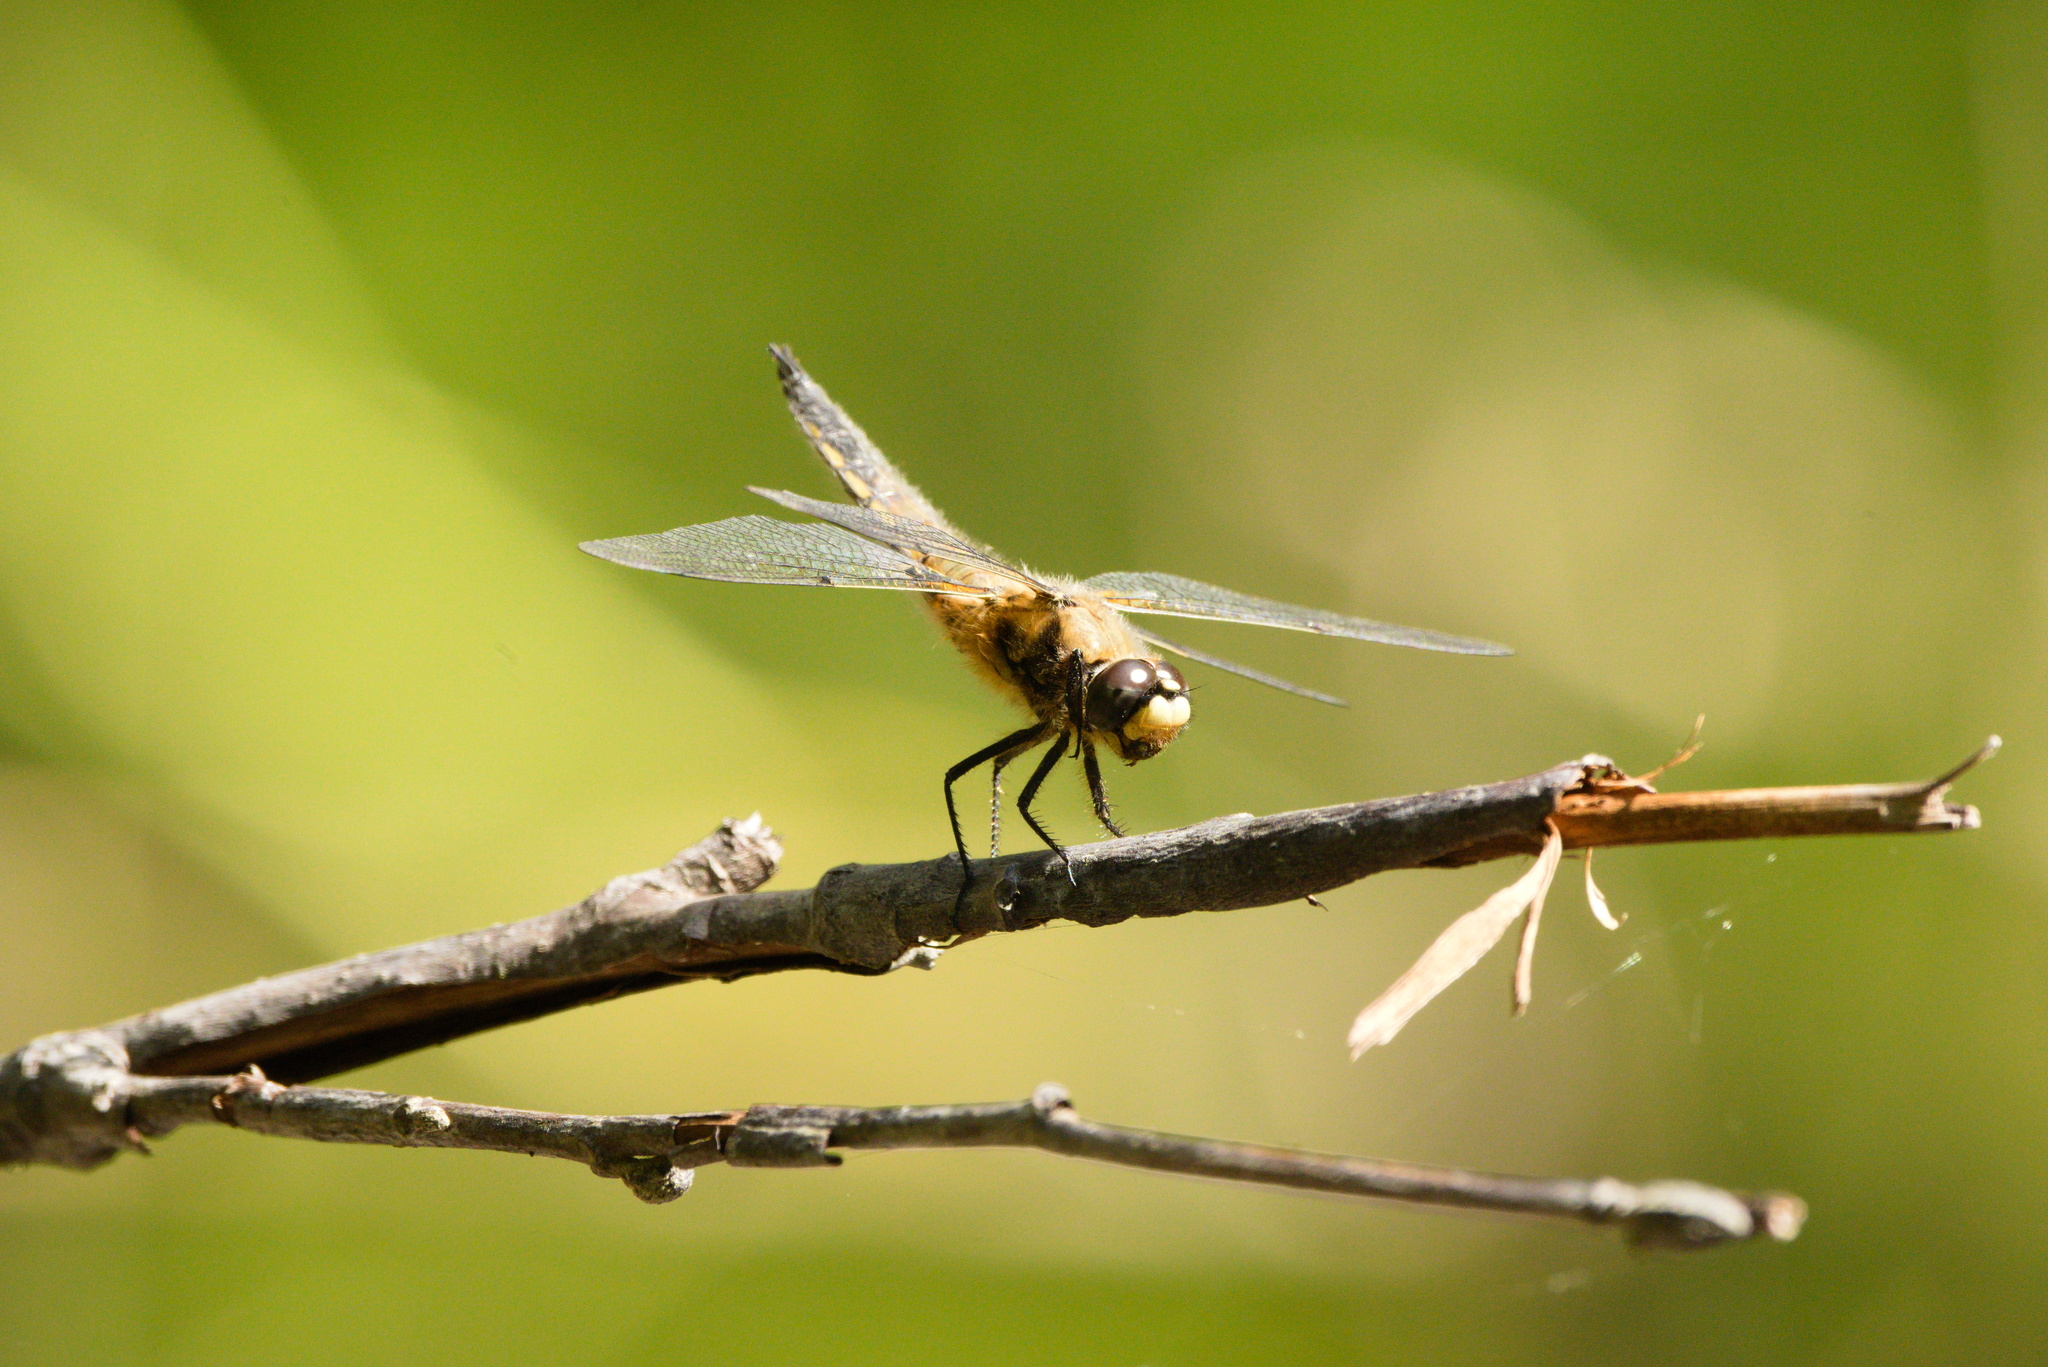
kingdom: Animalia
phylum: Arthropoda
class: Insecta
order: Odonata
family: Libellulidae
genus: Libellula
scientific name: Libellula quadrimaculata
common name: Four-spotted chaser
